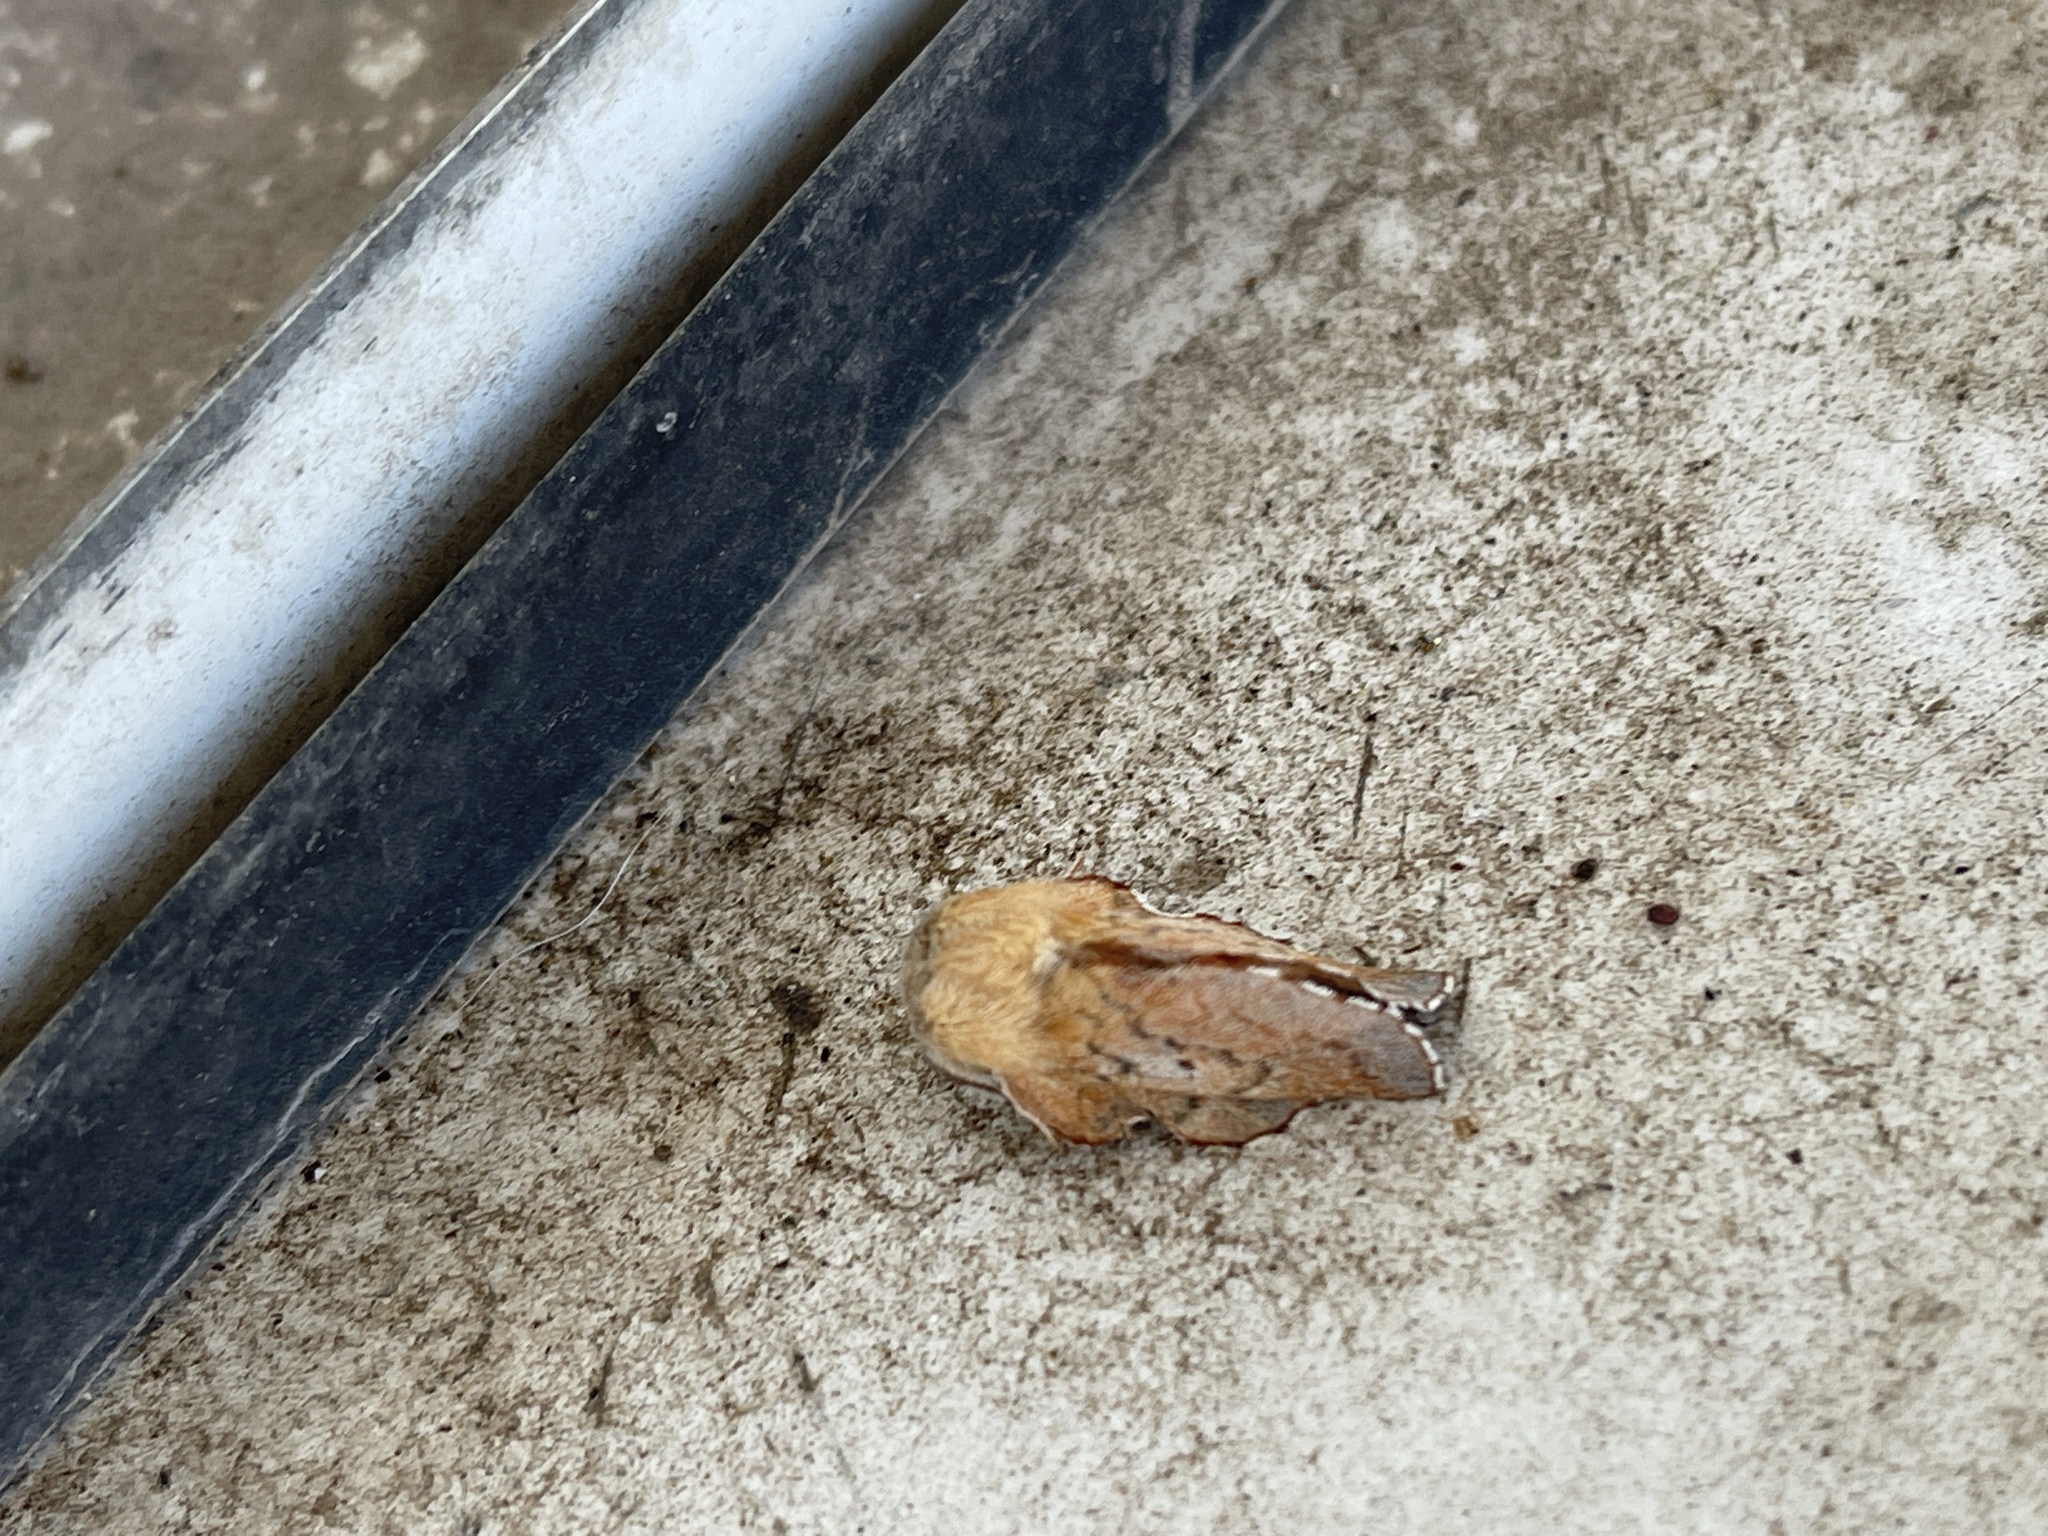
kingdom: Animalia
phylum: Arthropoda
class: Insecta
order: Lepidoptera
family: Lasiocampidae
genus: Phyllodesma
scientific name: Phyllodesma americana
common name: American lappet moth
